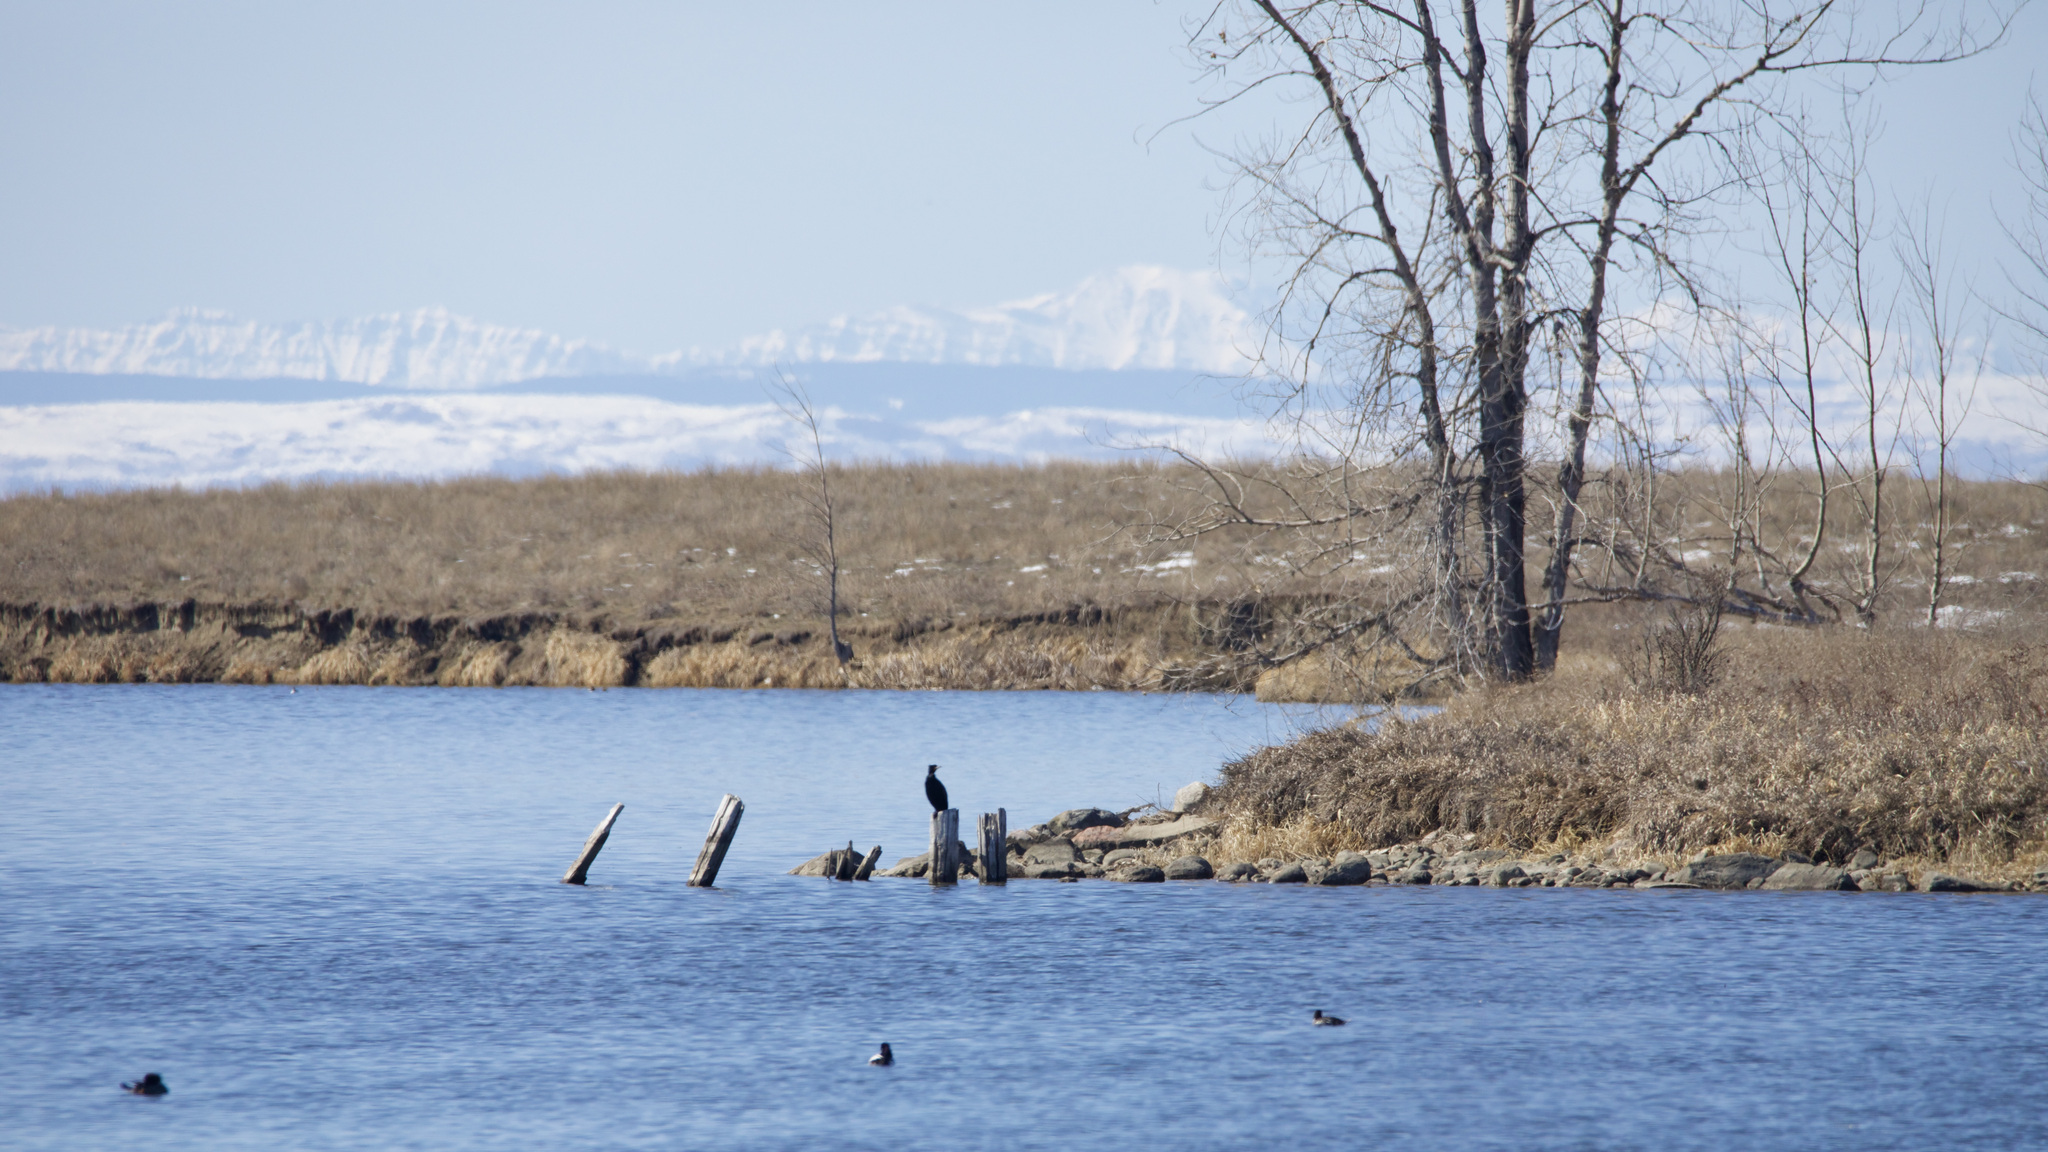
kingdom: Animalia
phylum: Chordata
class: Aves
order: Suliformes
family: Phalacrocoracidae
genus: Phalacrocorax
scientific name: Phalacrocorax auritus
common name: Double-crested cormorant
